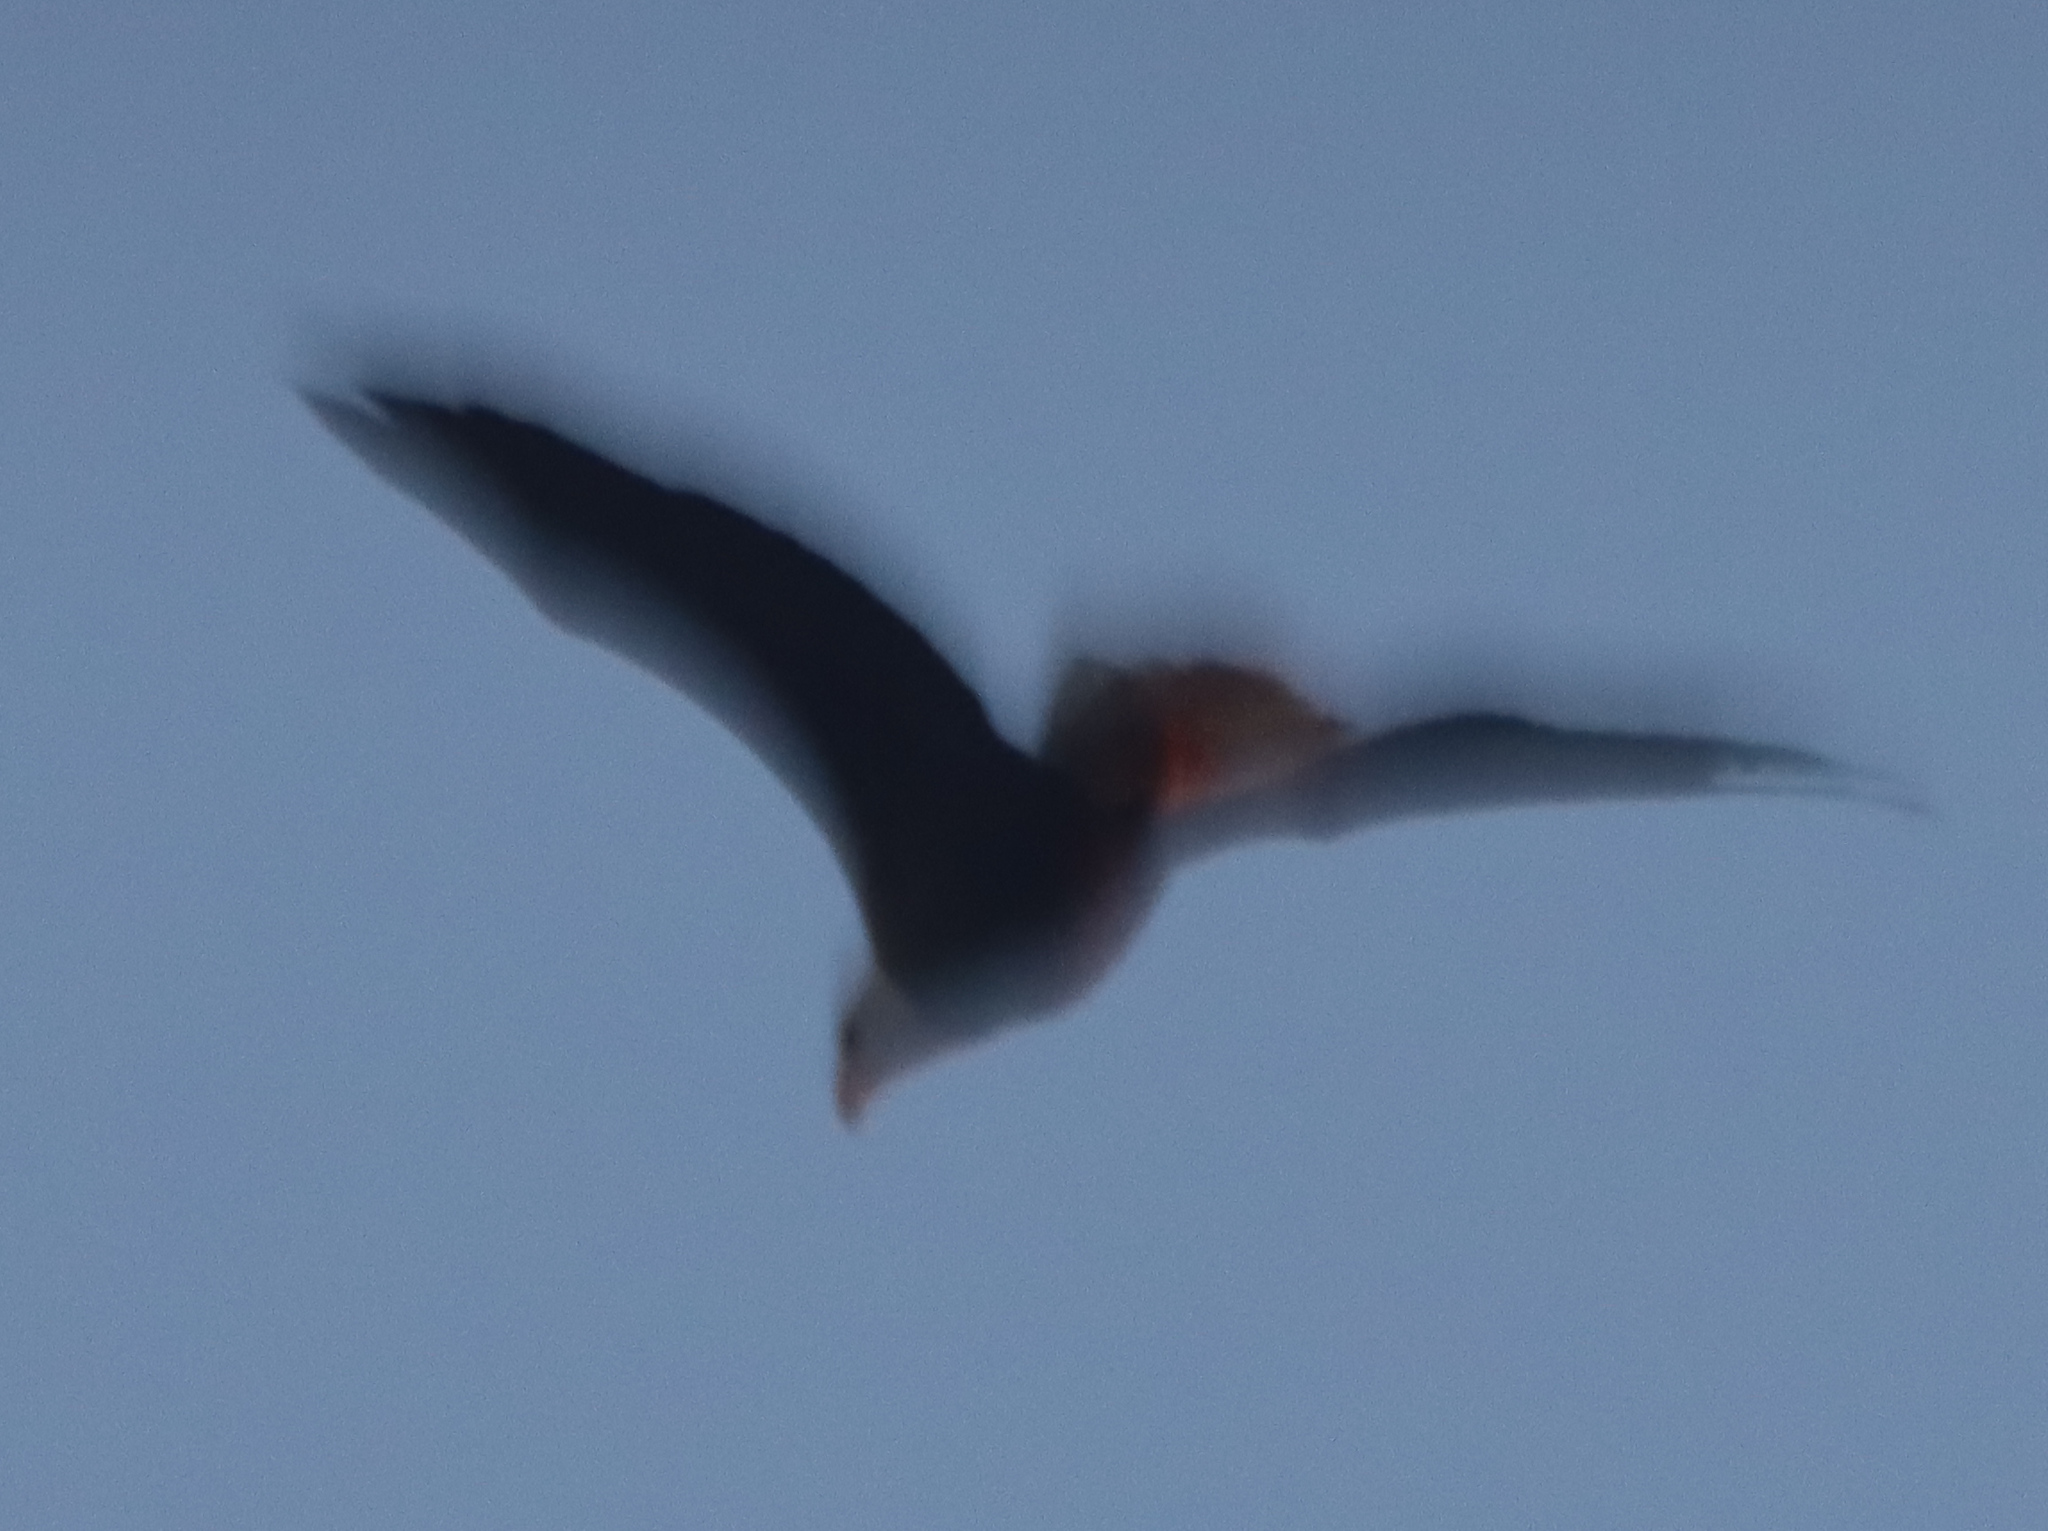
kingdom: Animalia
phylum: Chordata
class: Aves
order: Accipitriformes
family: Accipitridae
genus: Haliaeetus
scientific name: Haliaeetus leucocephalus
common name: Bald eagle
